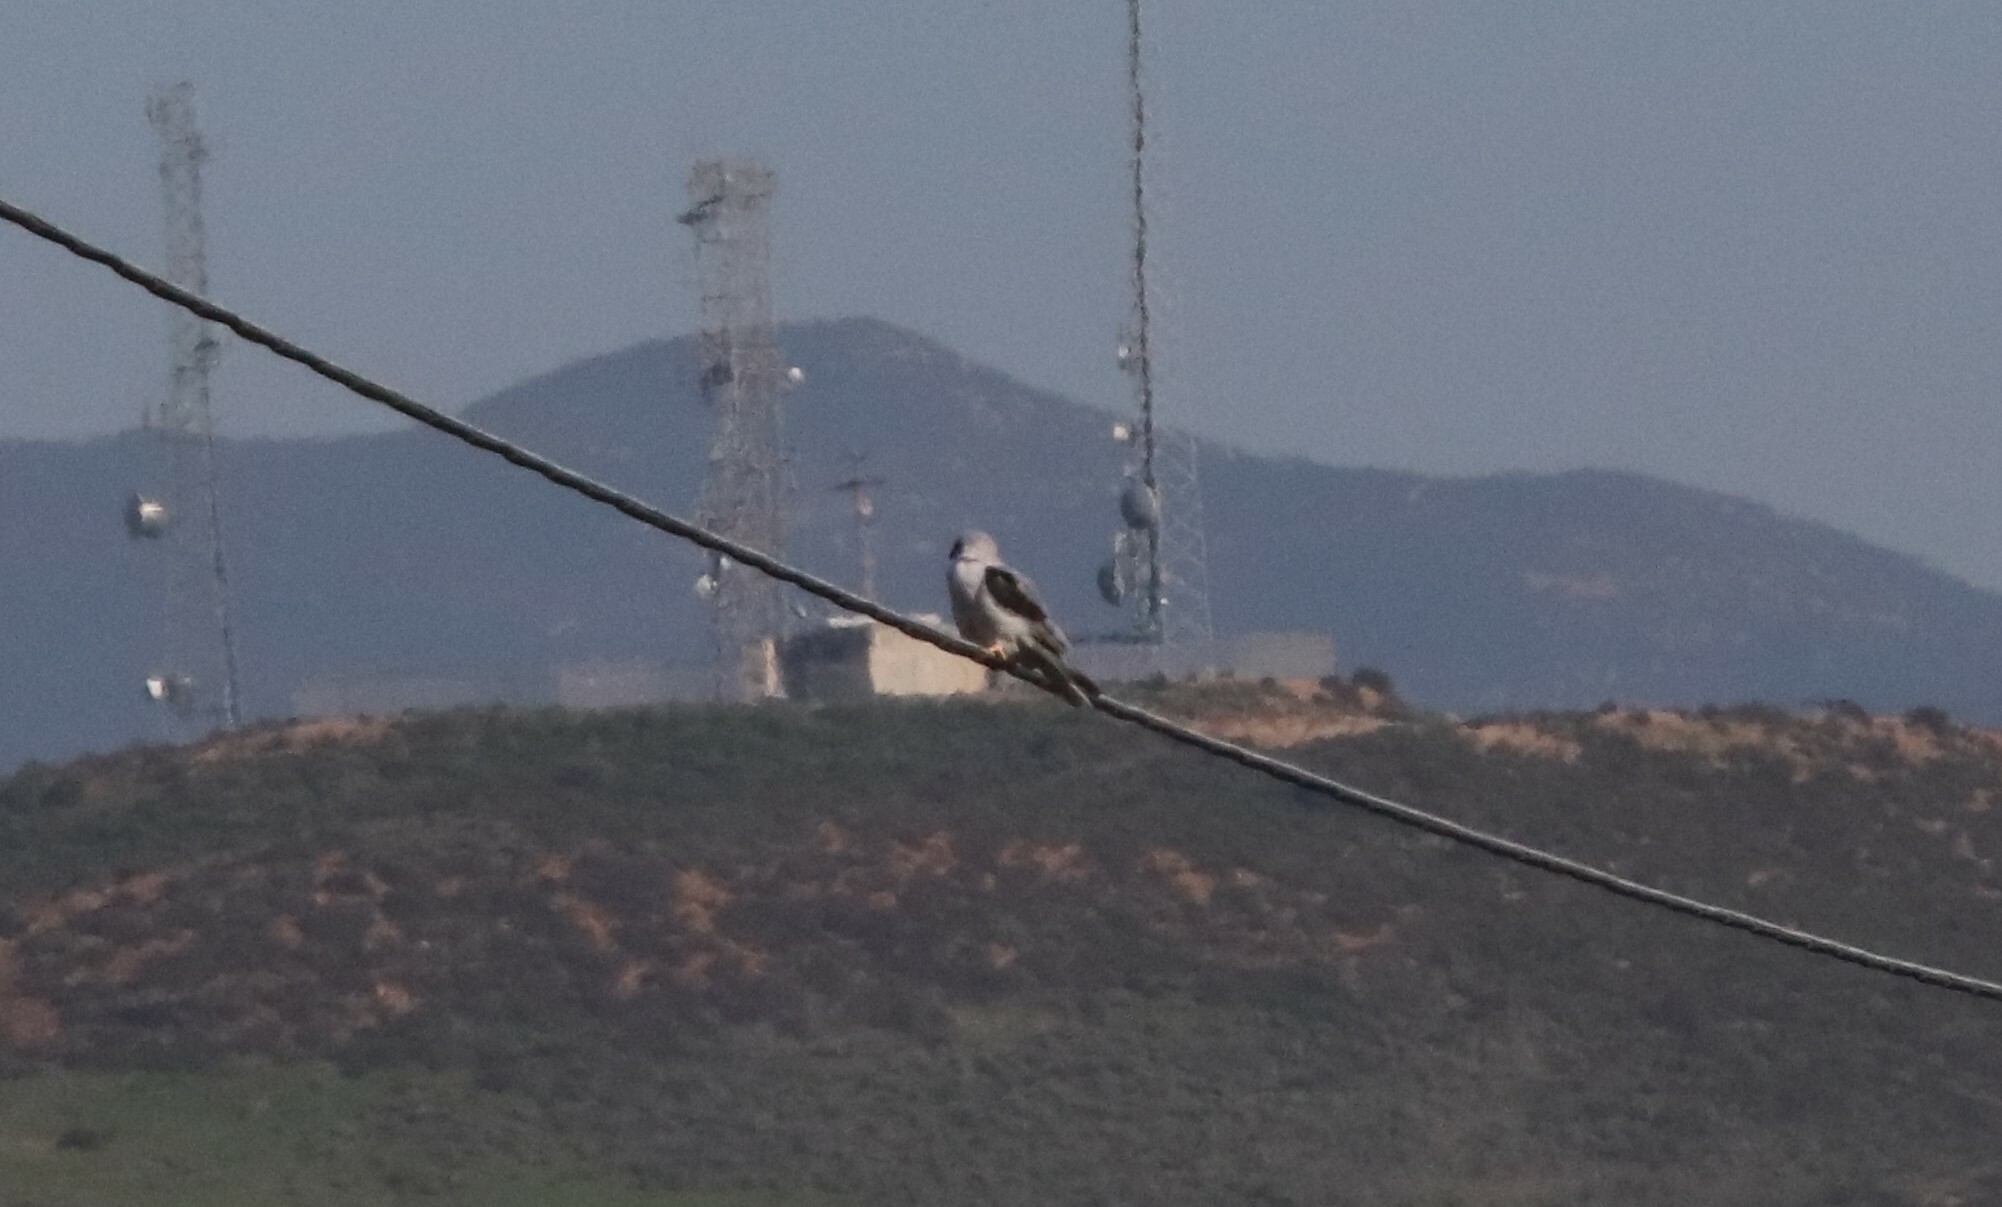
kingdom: Animalia
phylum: Chordata
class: Aves
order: Accipitriformes
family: Accipitridae
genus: Elanus
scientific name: Elanus leucurus
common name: White-tailed kite
